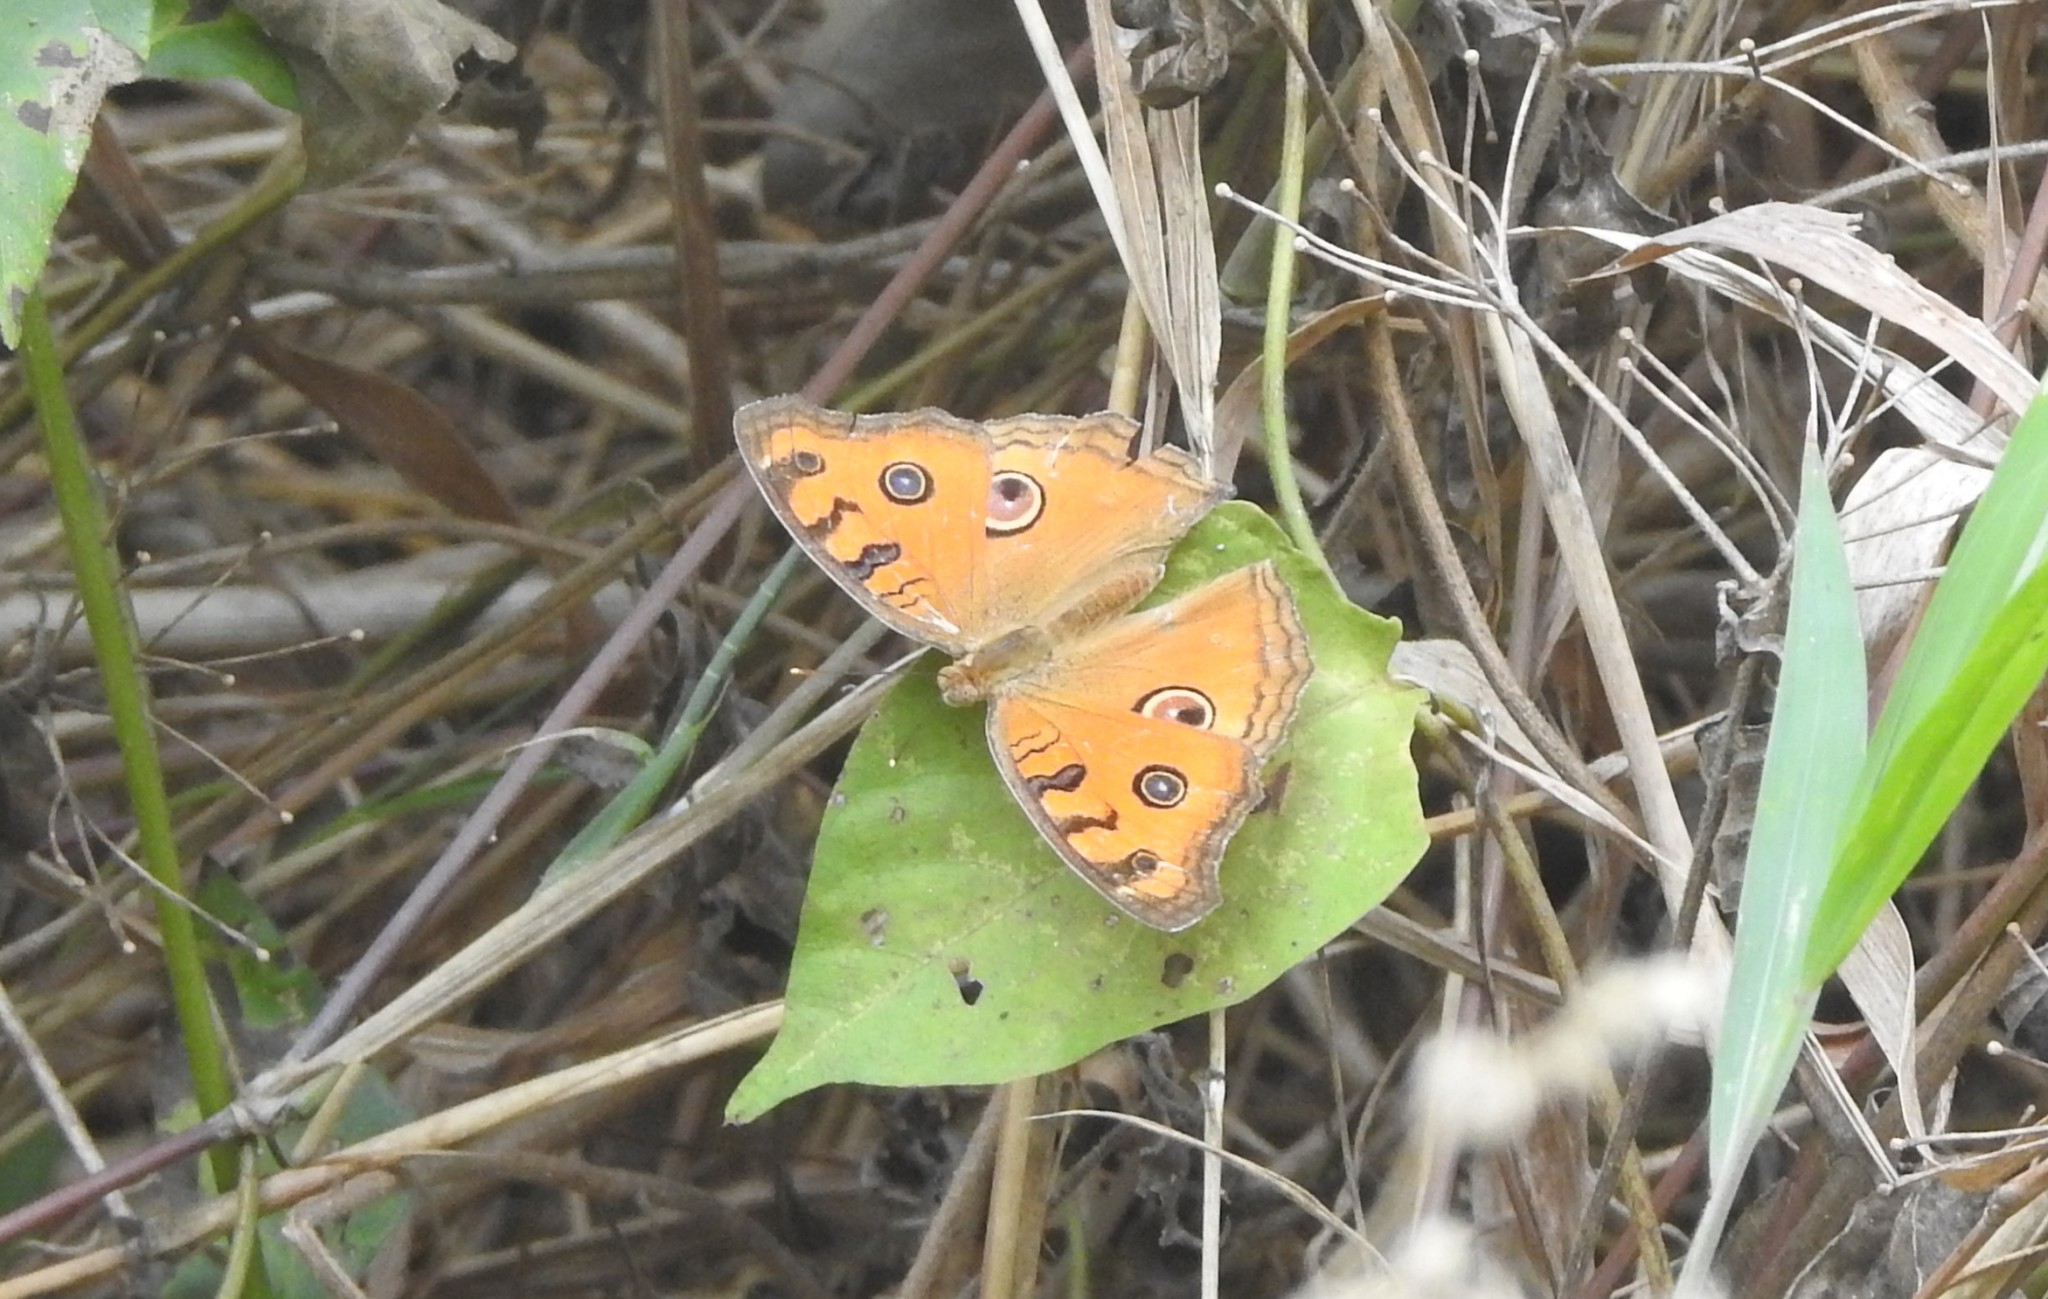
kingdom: Animalia
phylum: Arthropoda
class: Insecta
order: Lepidoptera
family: Nymphalidae
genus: Junonia
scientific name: Junonia almana
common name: Peacock pansy
